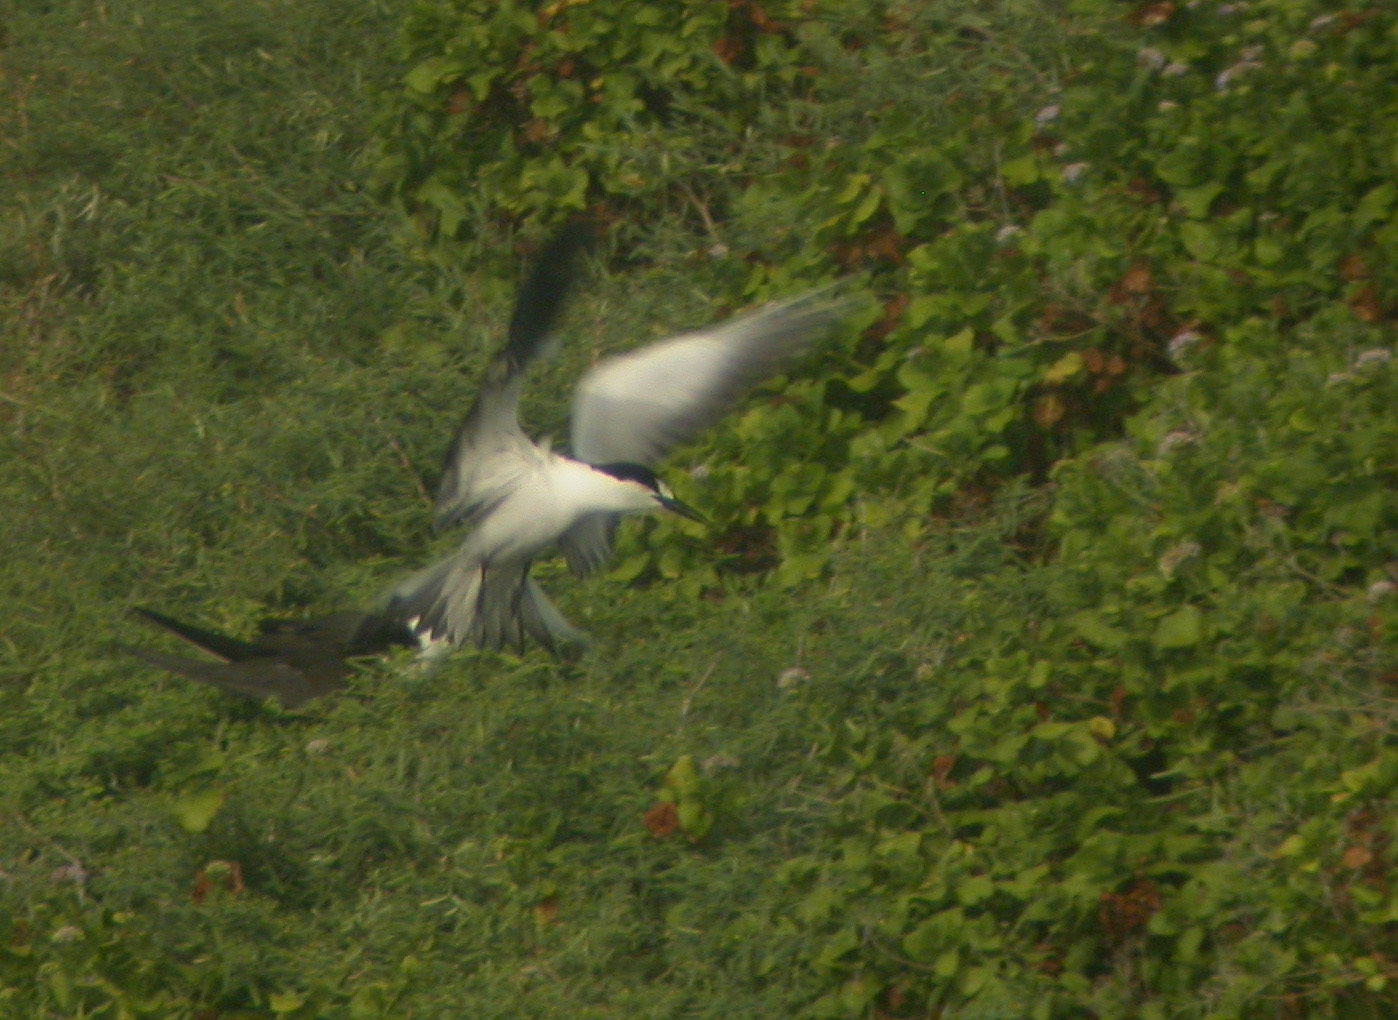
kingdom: Animalia
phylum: Chordata
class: Aves
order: Charadriiformes
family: Laridae
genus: Onychoprion
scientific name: Onychoprion fuscatus
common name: Sooty tern
